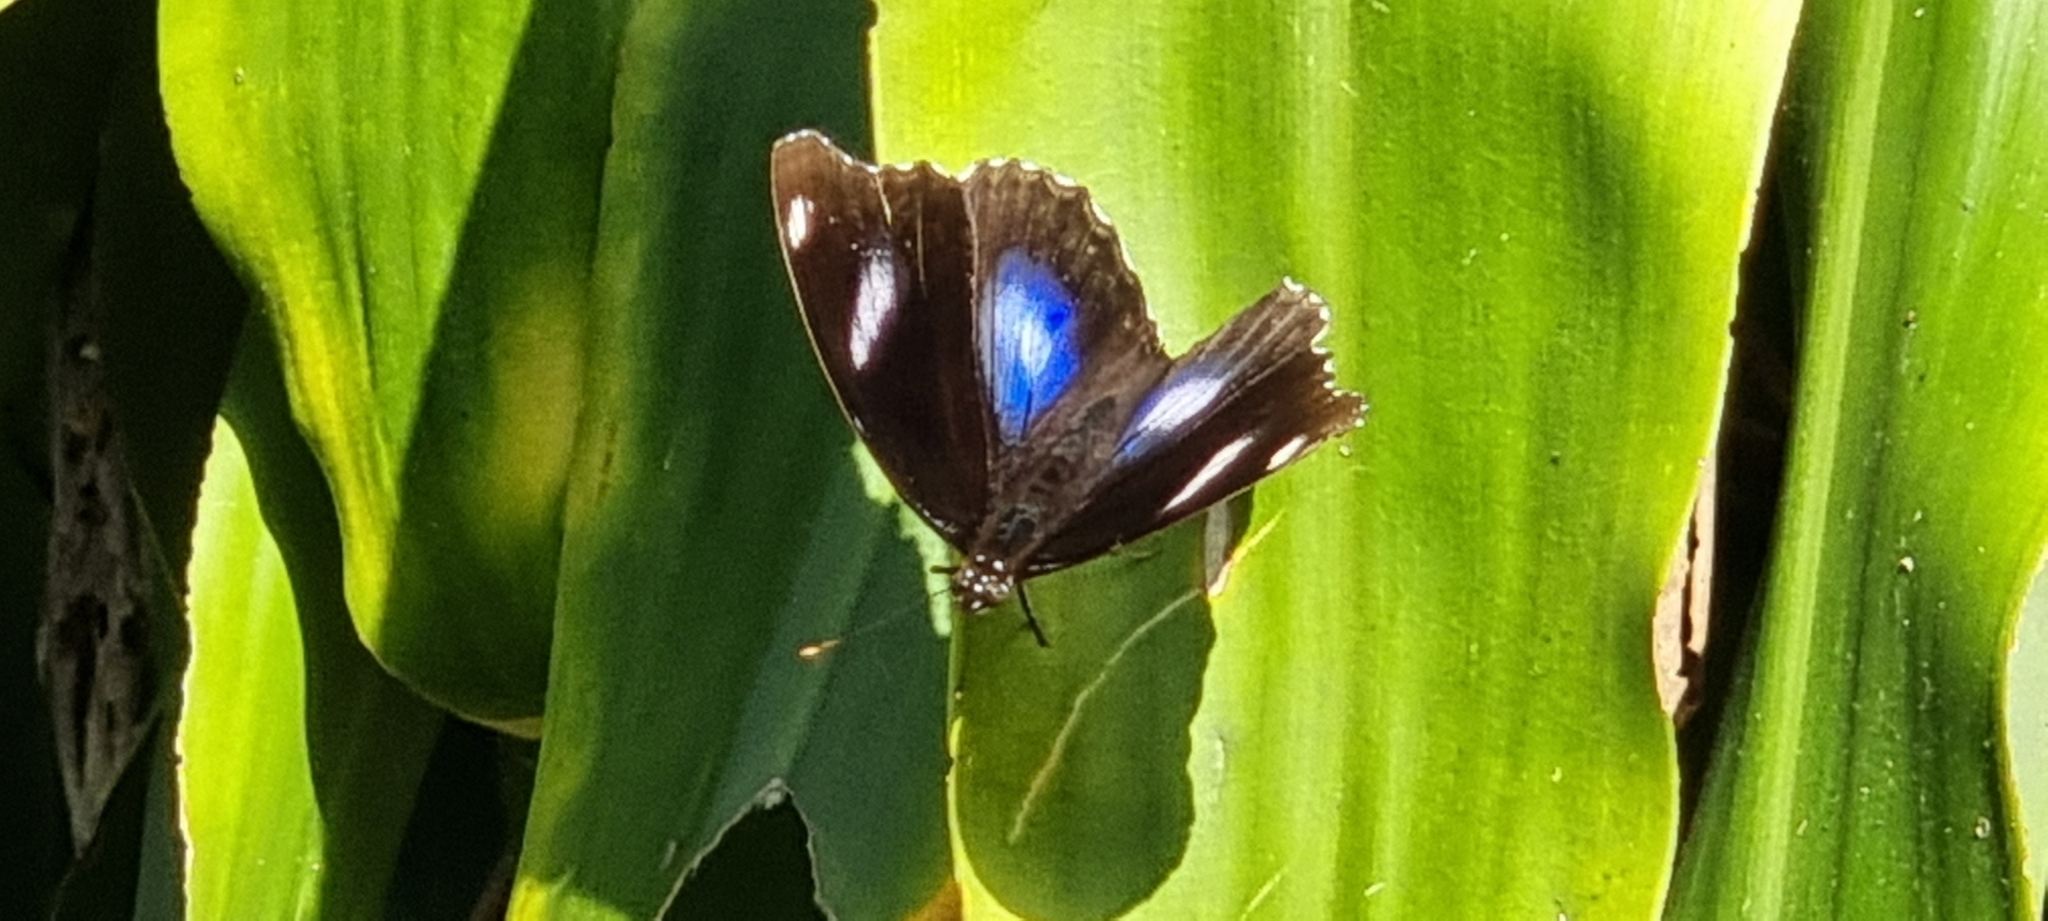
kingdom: Animalia
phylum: Arthropoda
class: Insecta
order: Lepidoptera
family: Nymphalidae
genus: Hypolimnas
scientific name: Hypolimnas bolina
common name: Great eggfly
